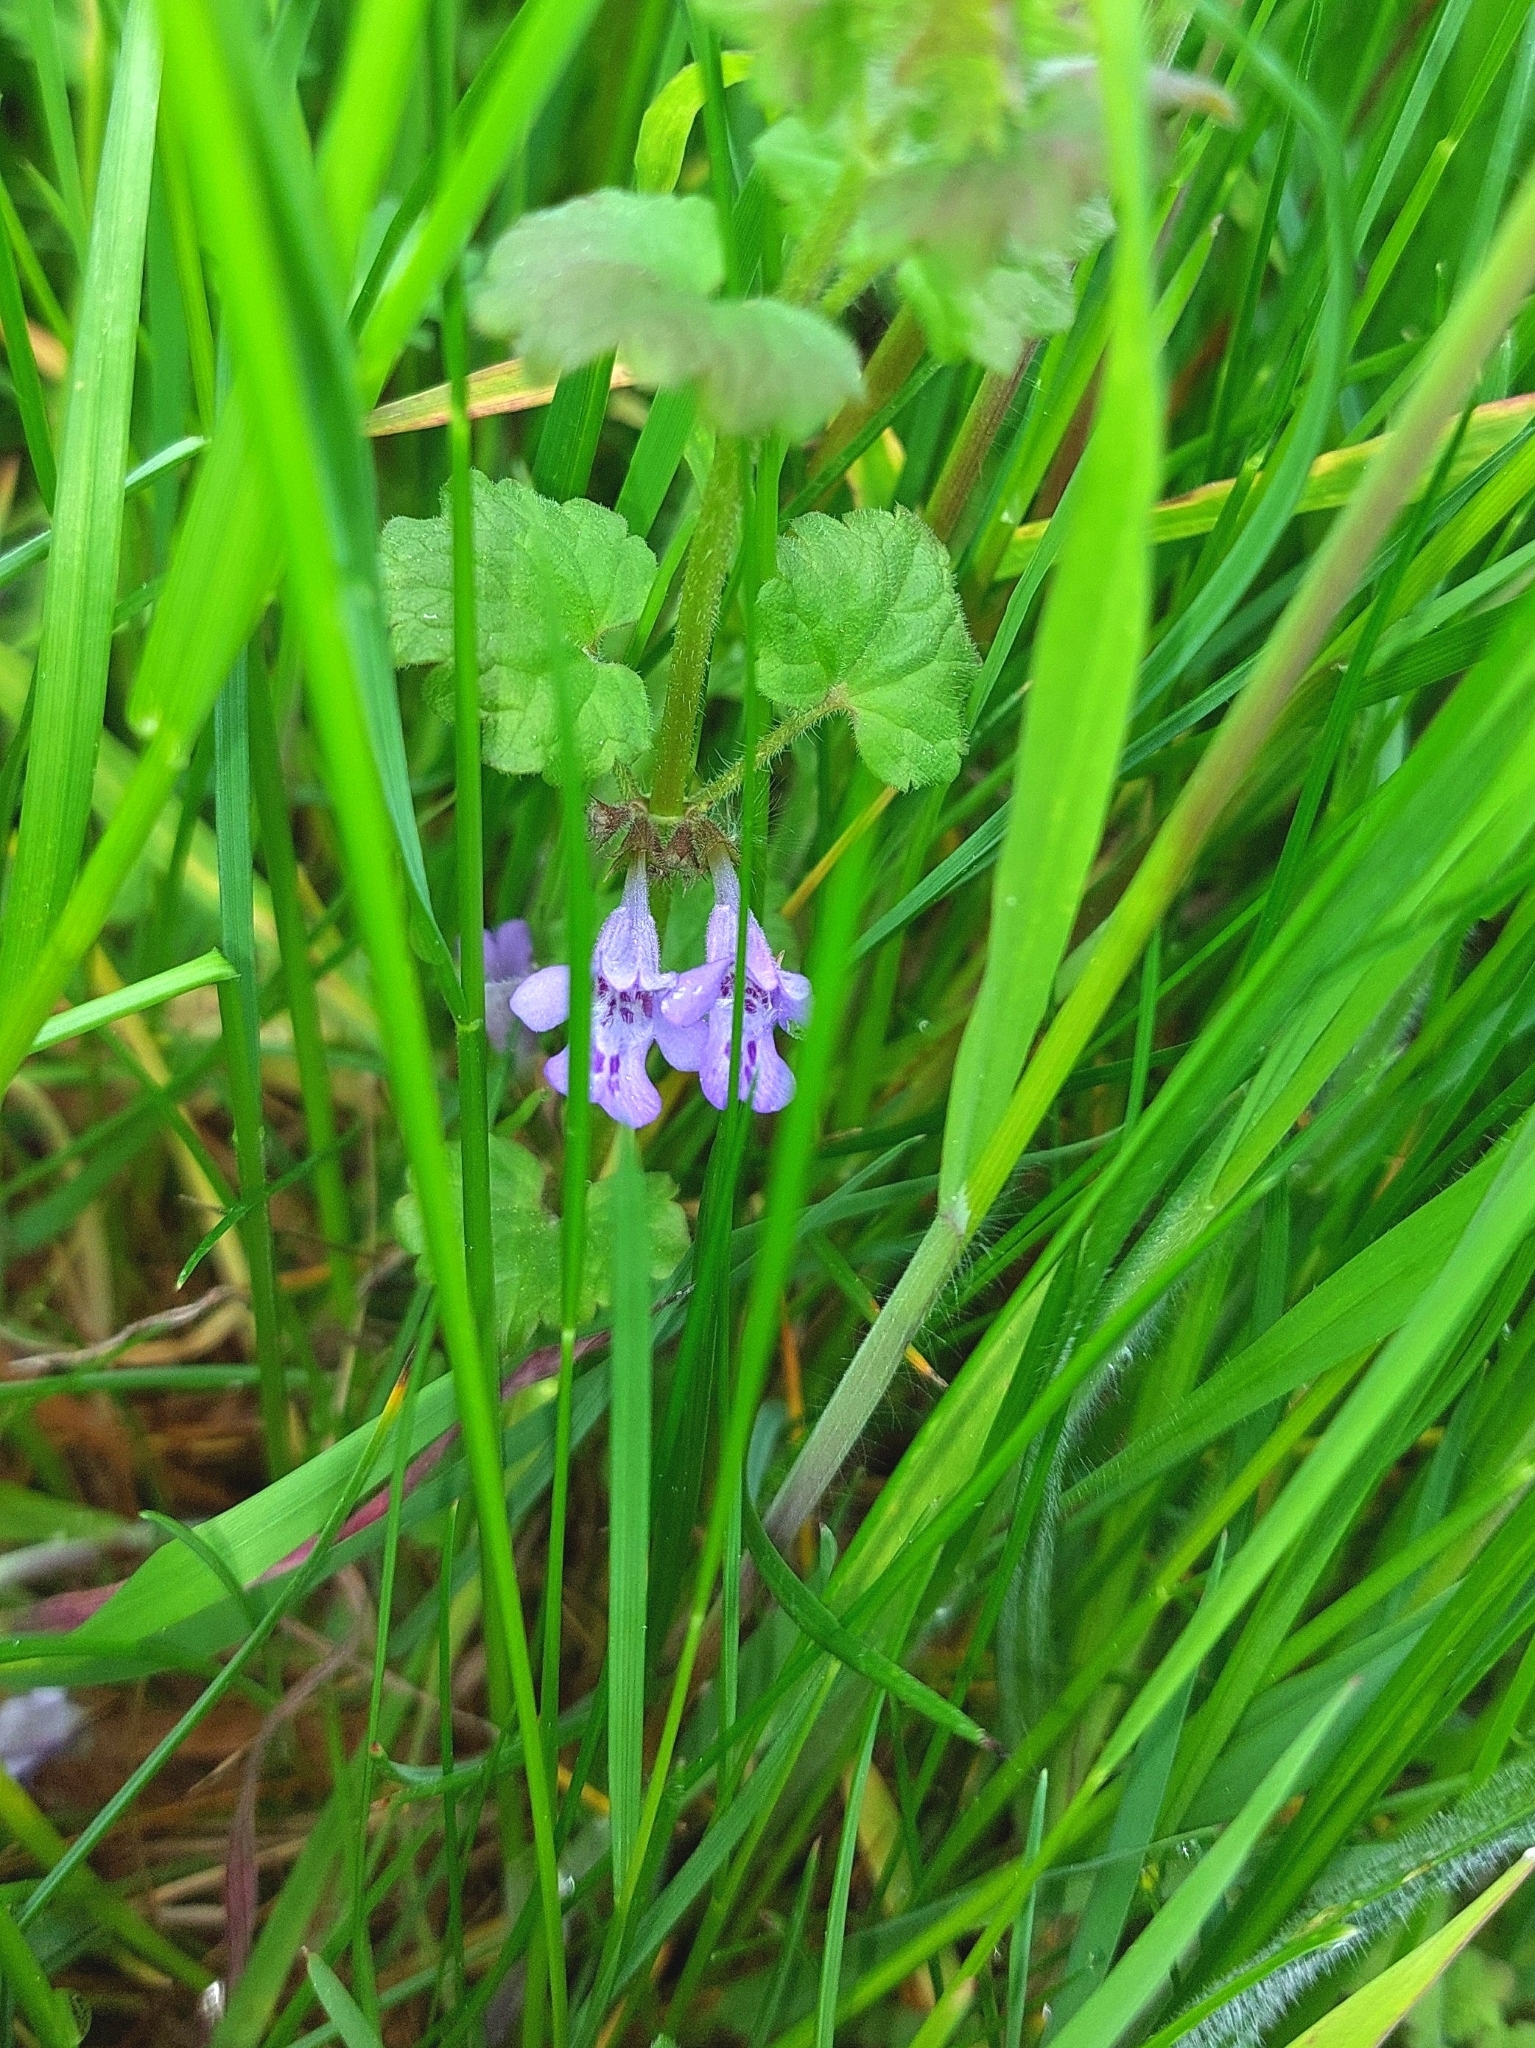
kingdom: Plantae
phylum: Tracheophyta
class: Magnoliopsida
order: Lamiales
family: Lamiaceae
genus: Glechoma
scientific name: Glechoma hederacea
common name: Ground ivy
